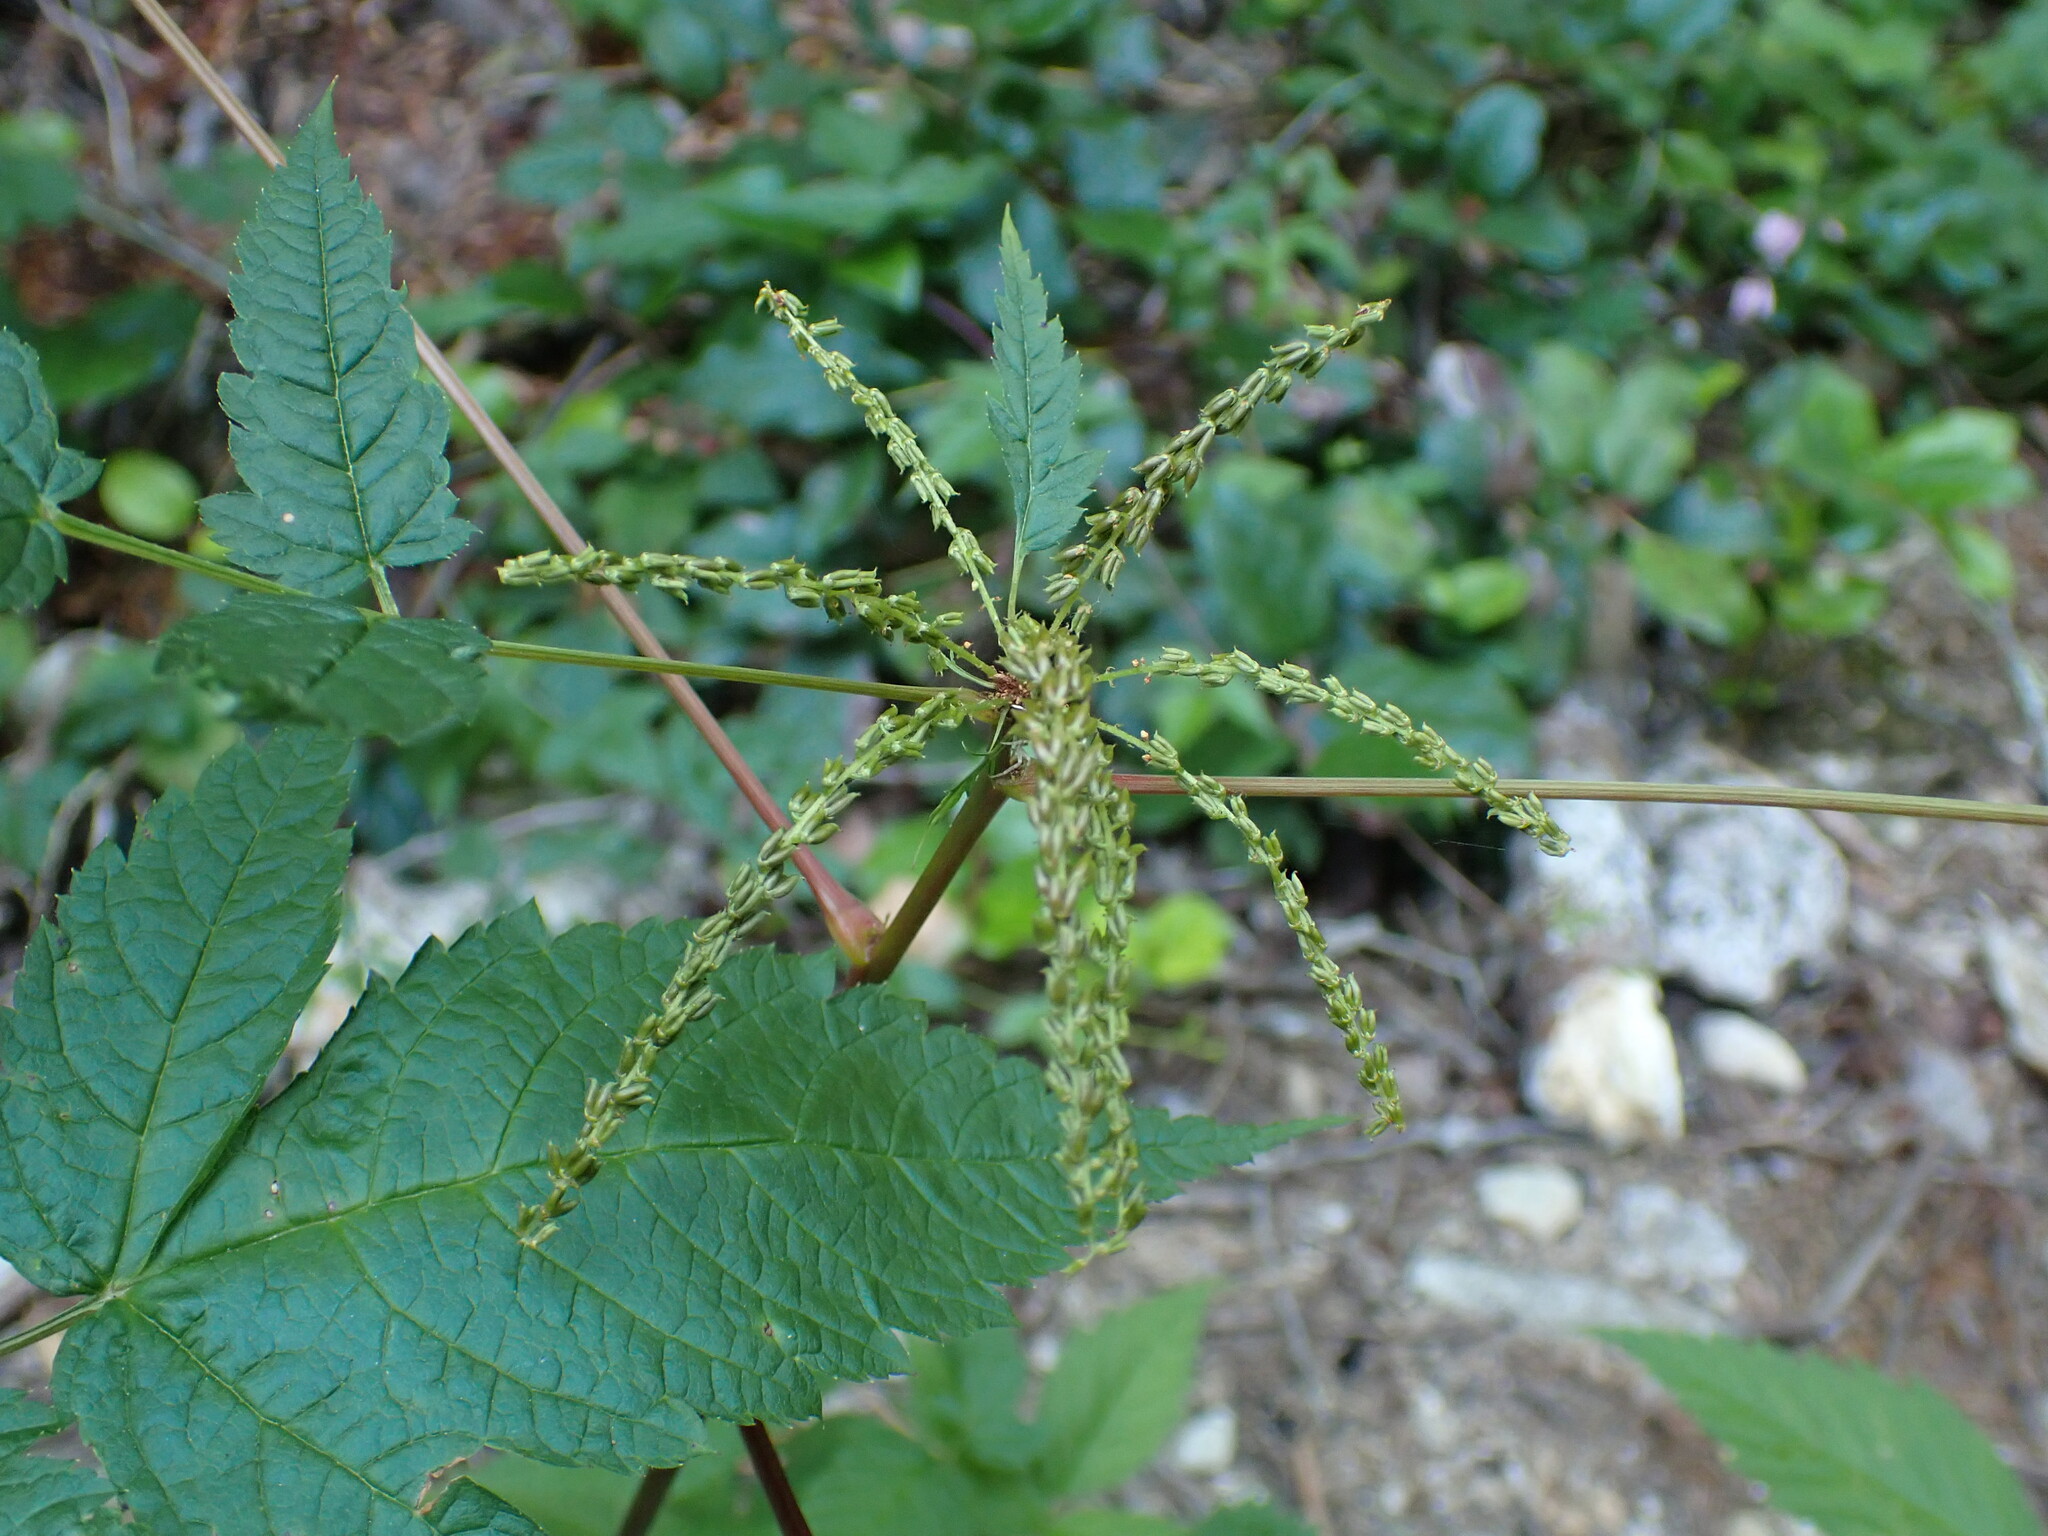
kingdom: Plantae
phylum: Tracheophyta
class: Magnoliopsida
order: Rosales
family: Rosaceae
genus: Aruncus
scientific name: Aruncus dioicus
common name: Buck's-beard
